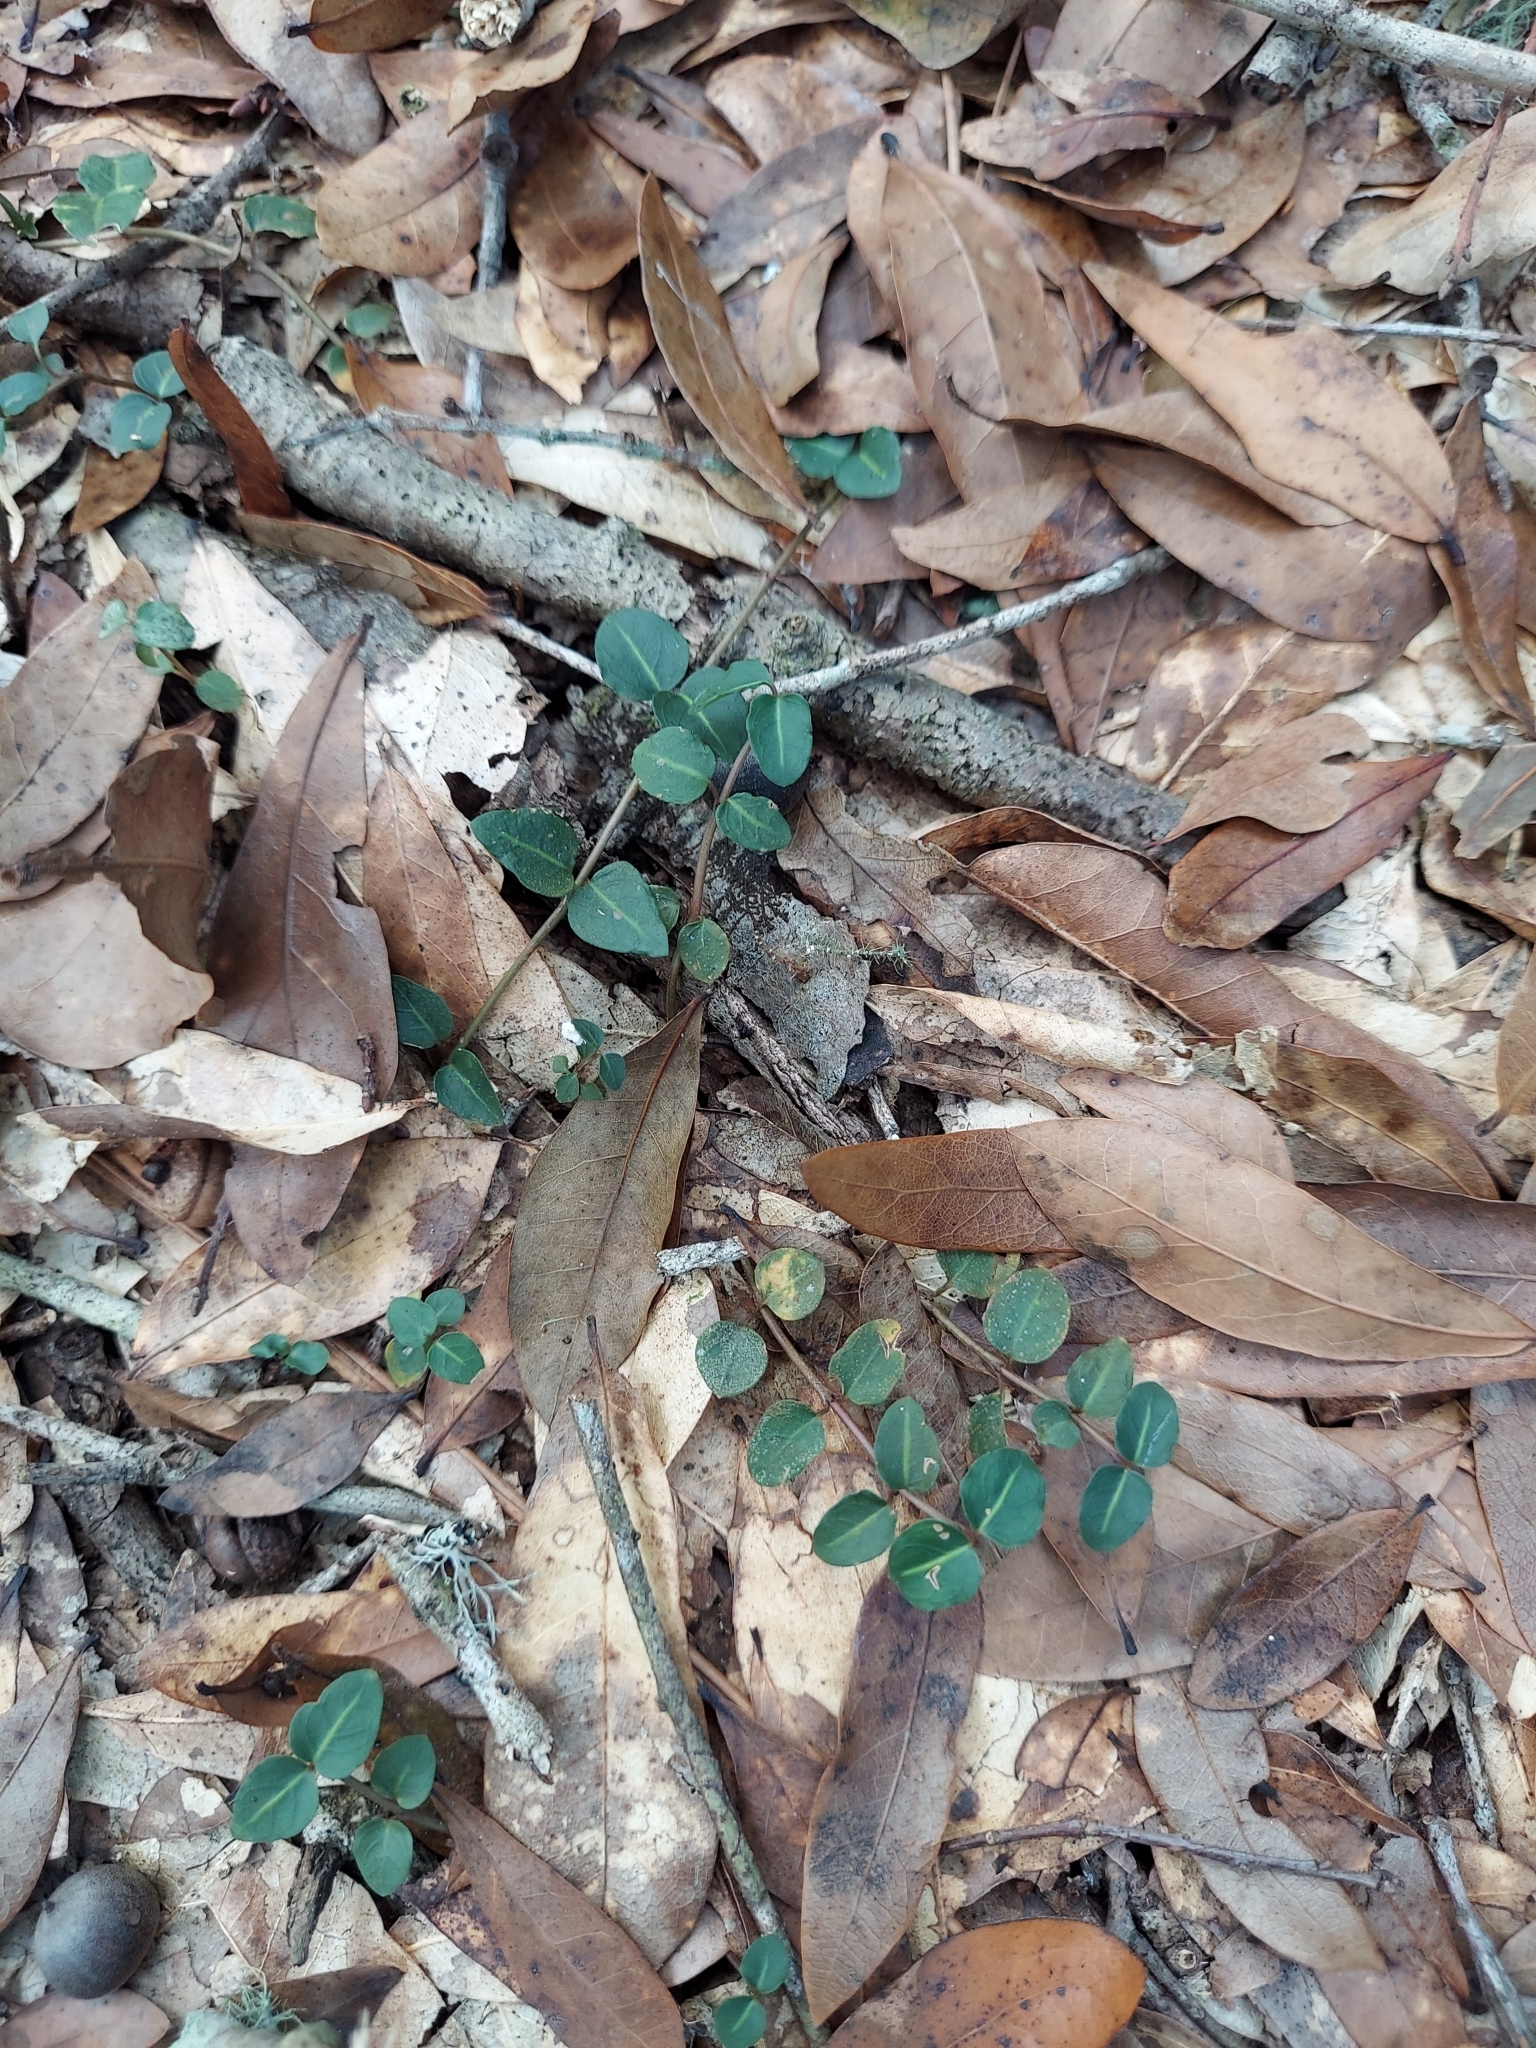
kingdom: Plantae
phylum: Tracheophyta
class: Magnoliopsida
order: Gentianales
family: Rubiaceae
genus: Mitchella
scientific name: Mitchella repens
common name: Partridge-berry
